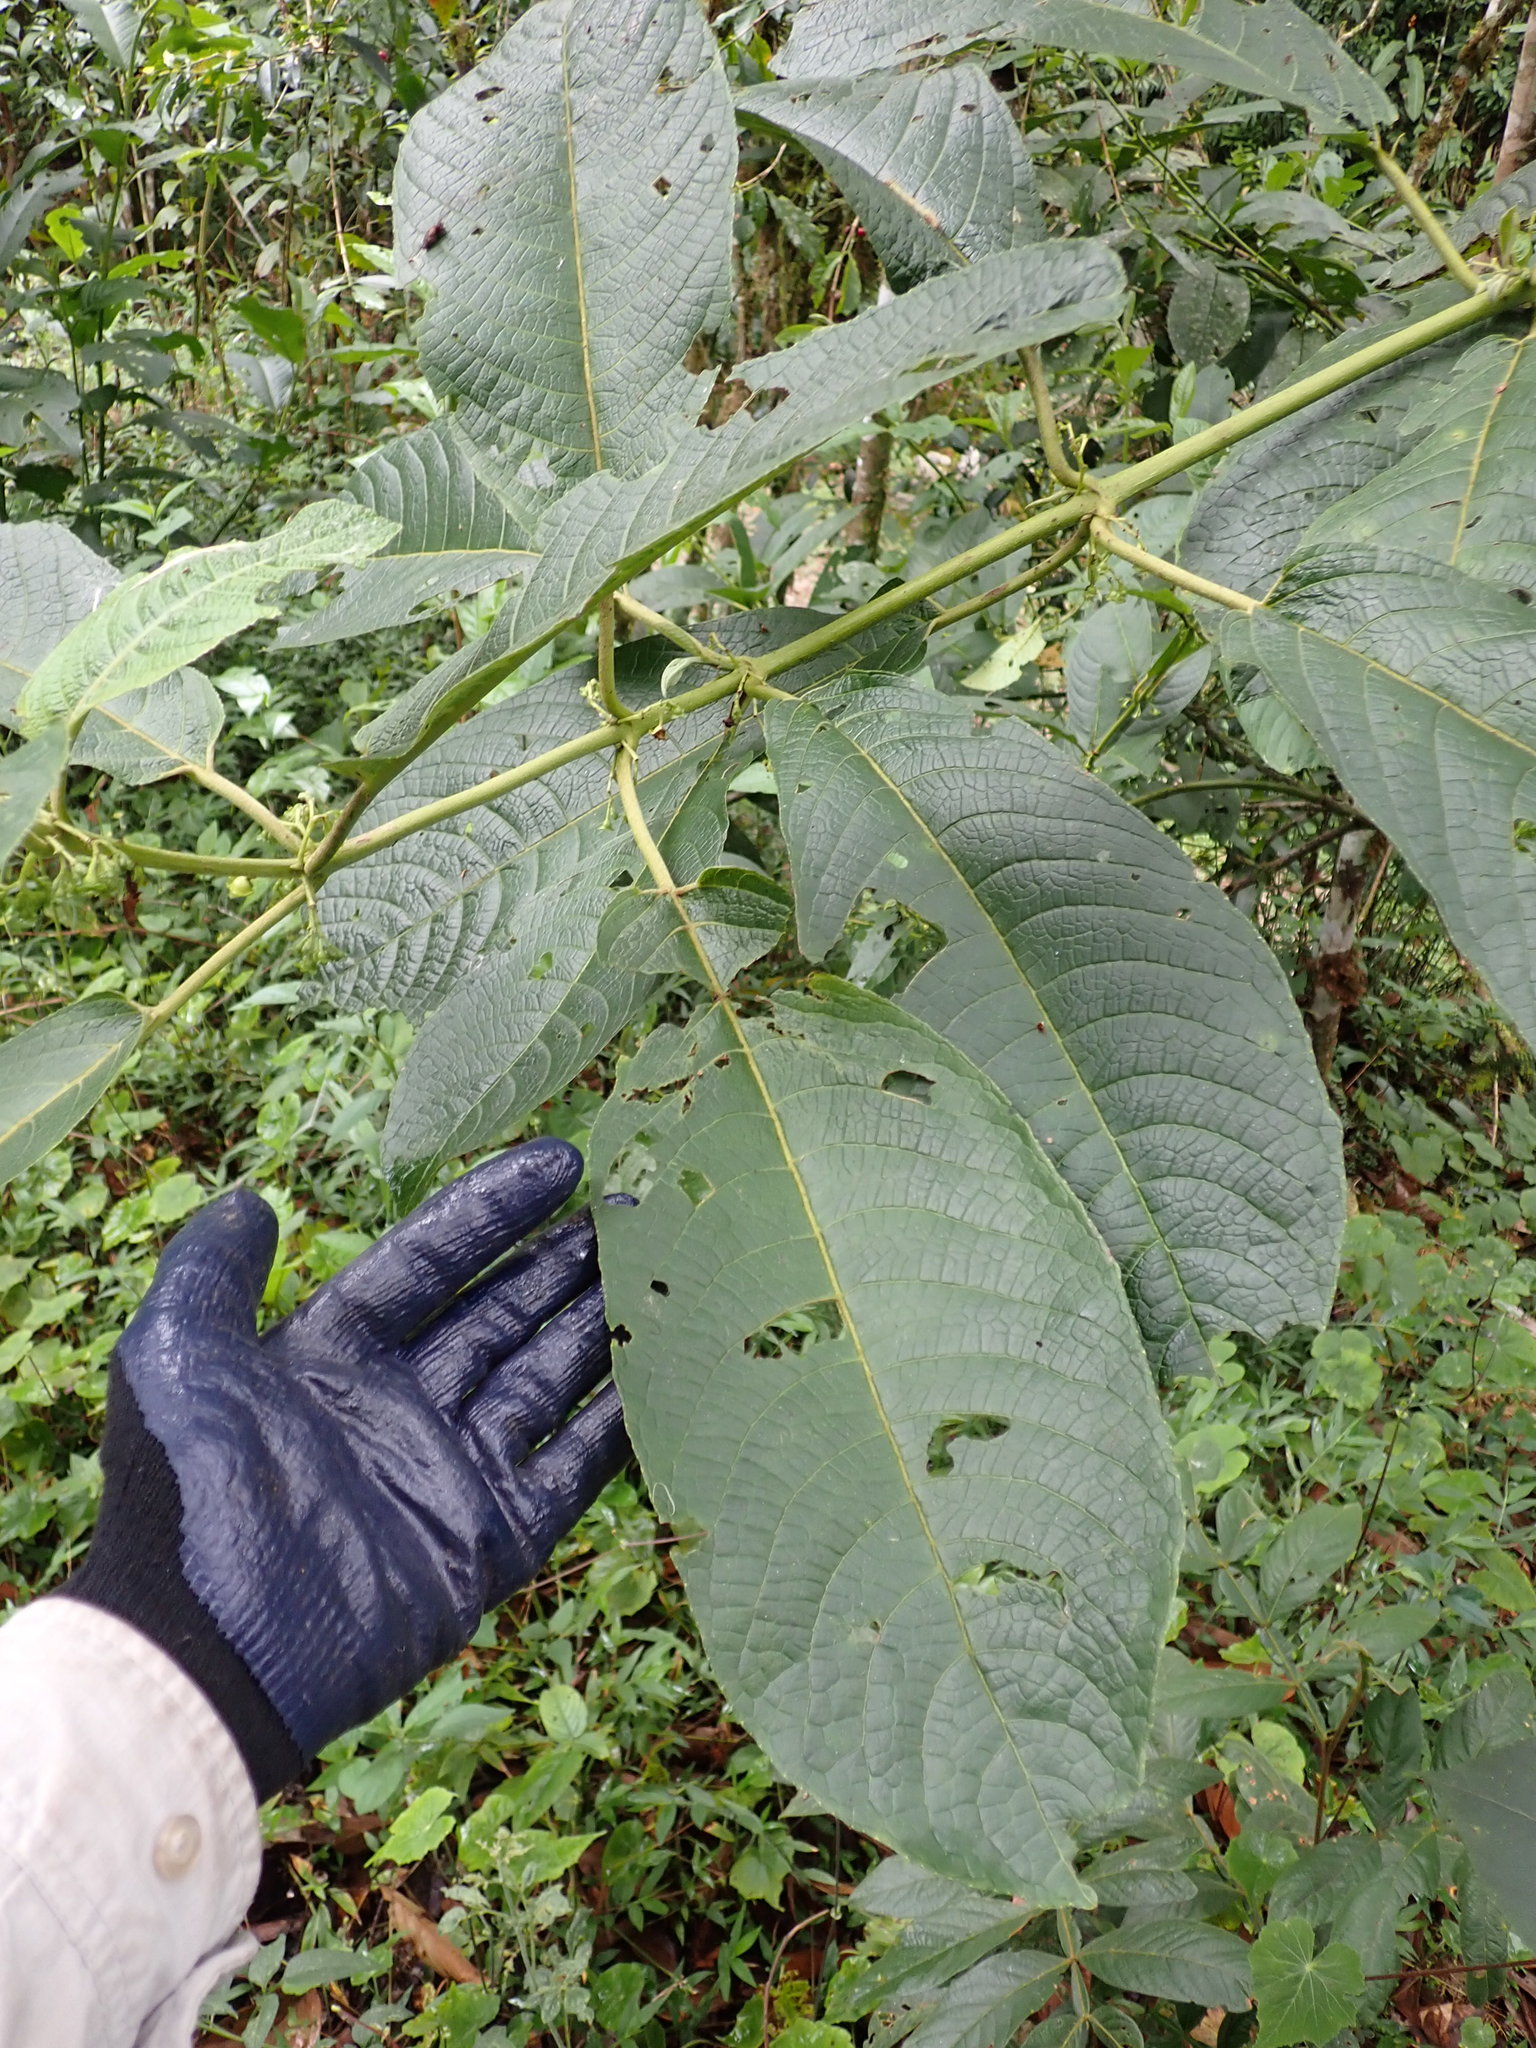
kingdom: Plantae
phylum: Tracheophyta
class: Magnoliopsida
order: Laurales
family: Siparunaceae
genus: Siparuna
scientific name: Siparuna thecaphora
